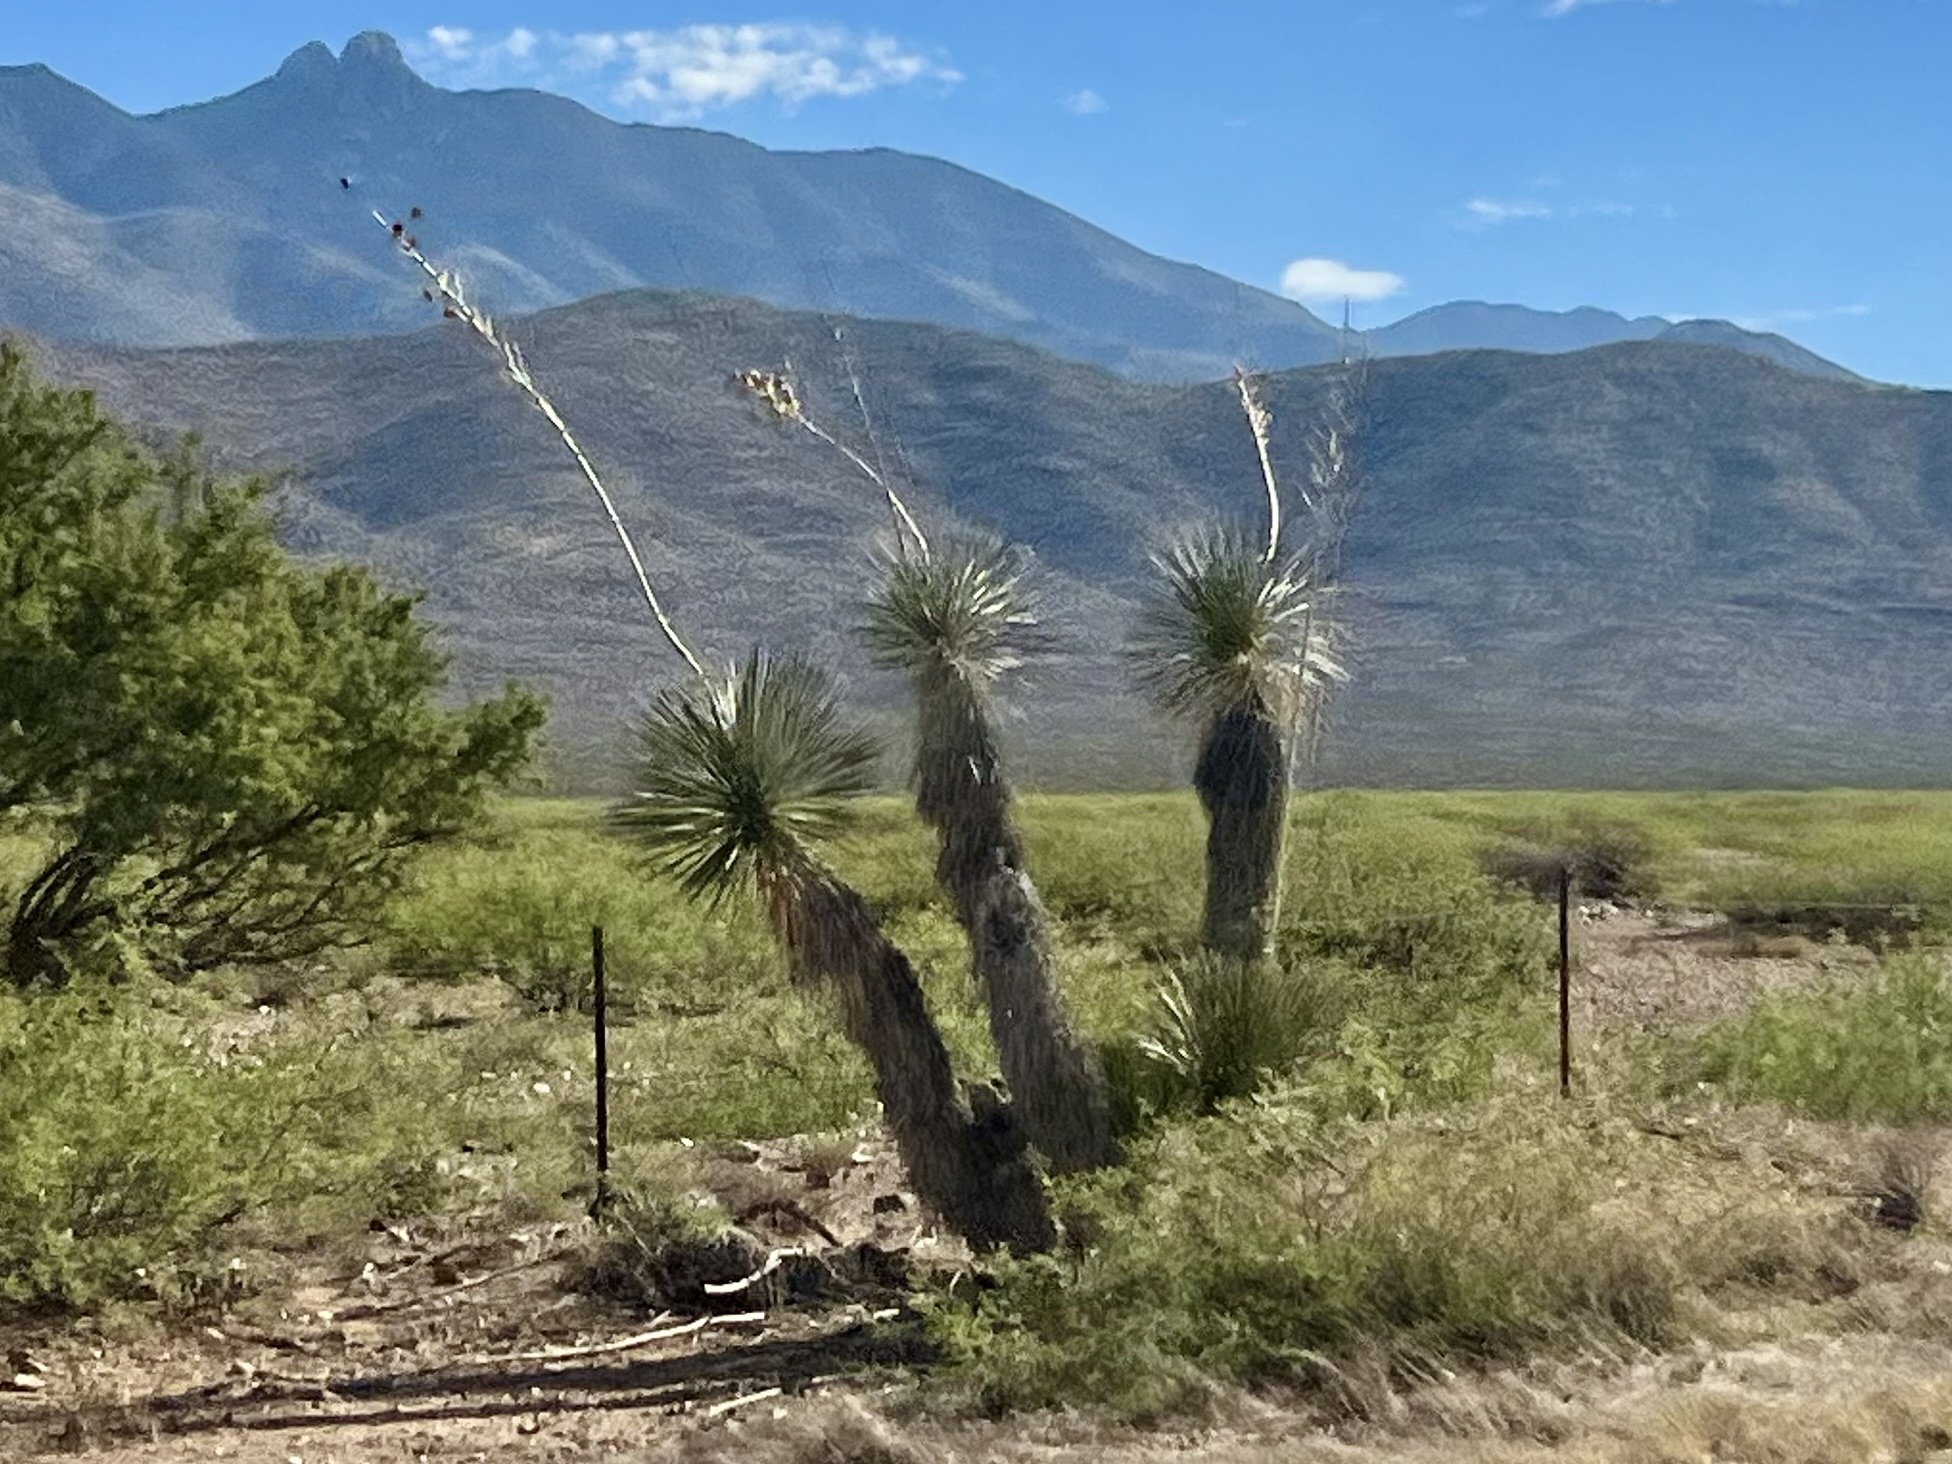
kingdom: Plantae
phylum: Tracheophyta
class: Liliopsida
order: Asparagales
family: Asparagaceae
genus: Yucca
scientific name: Yucca elata
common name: Palmella
